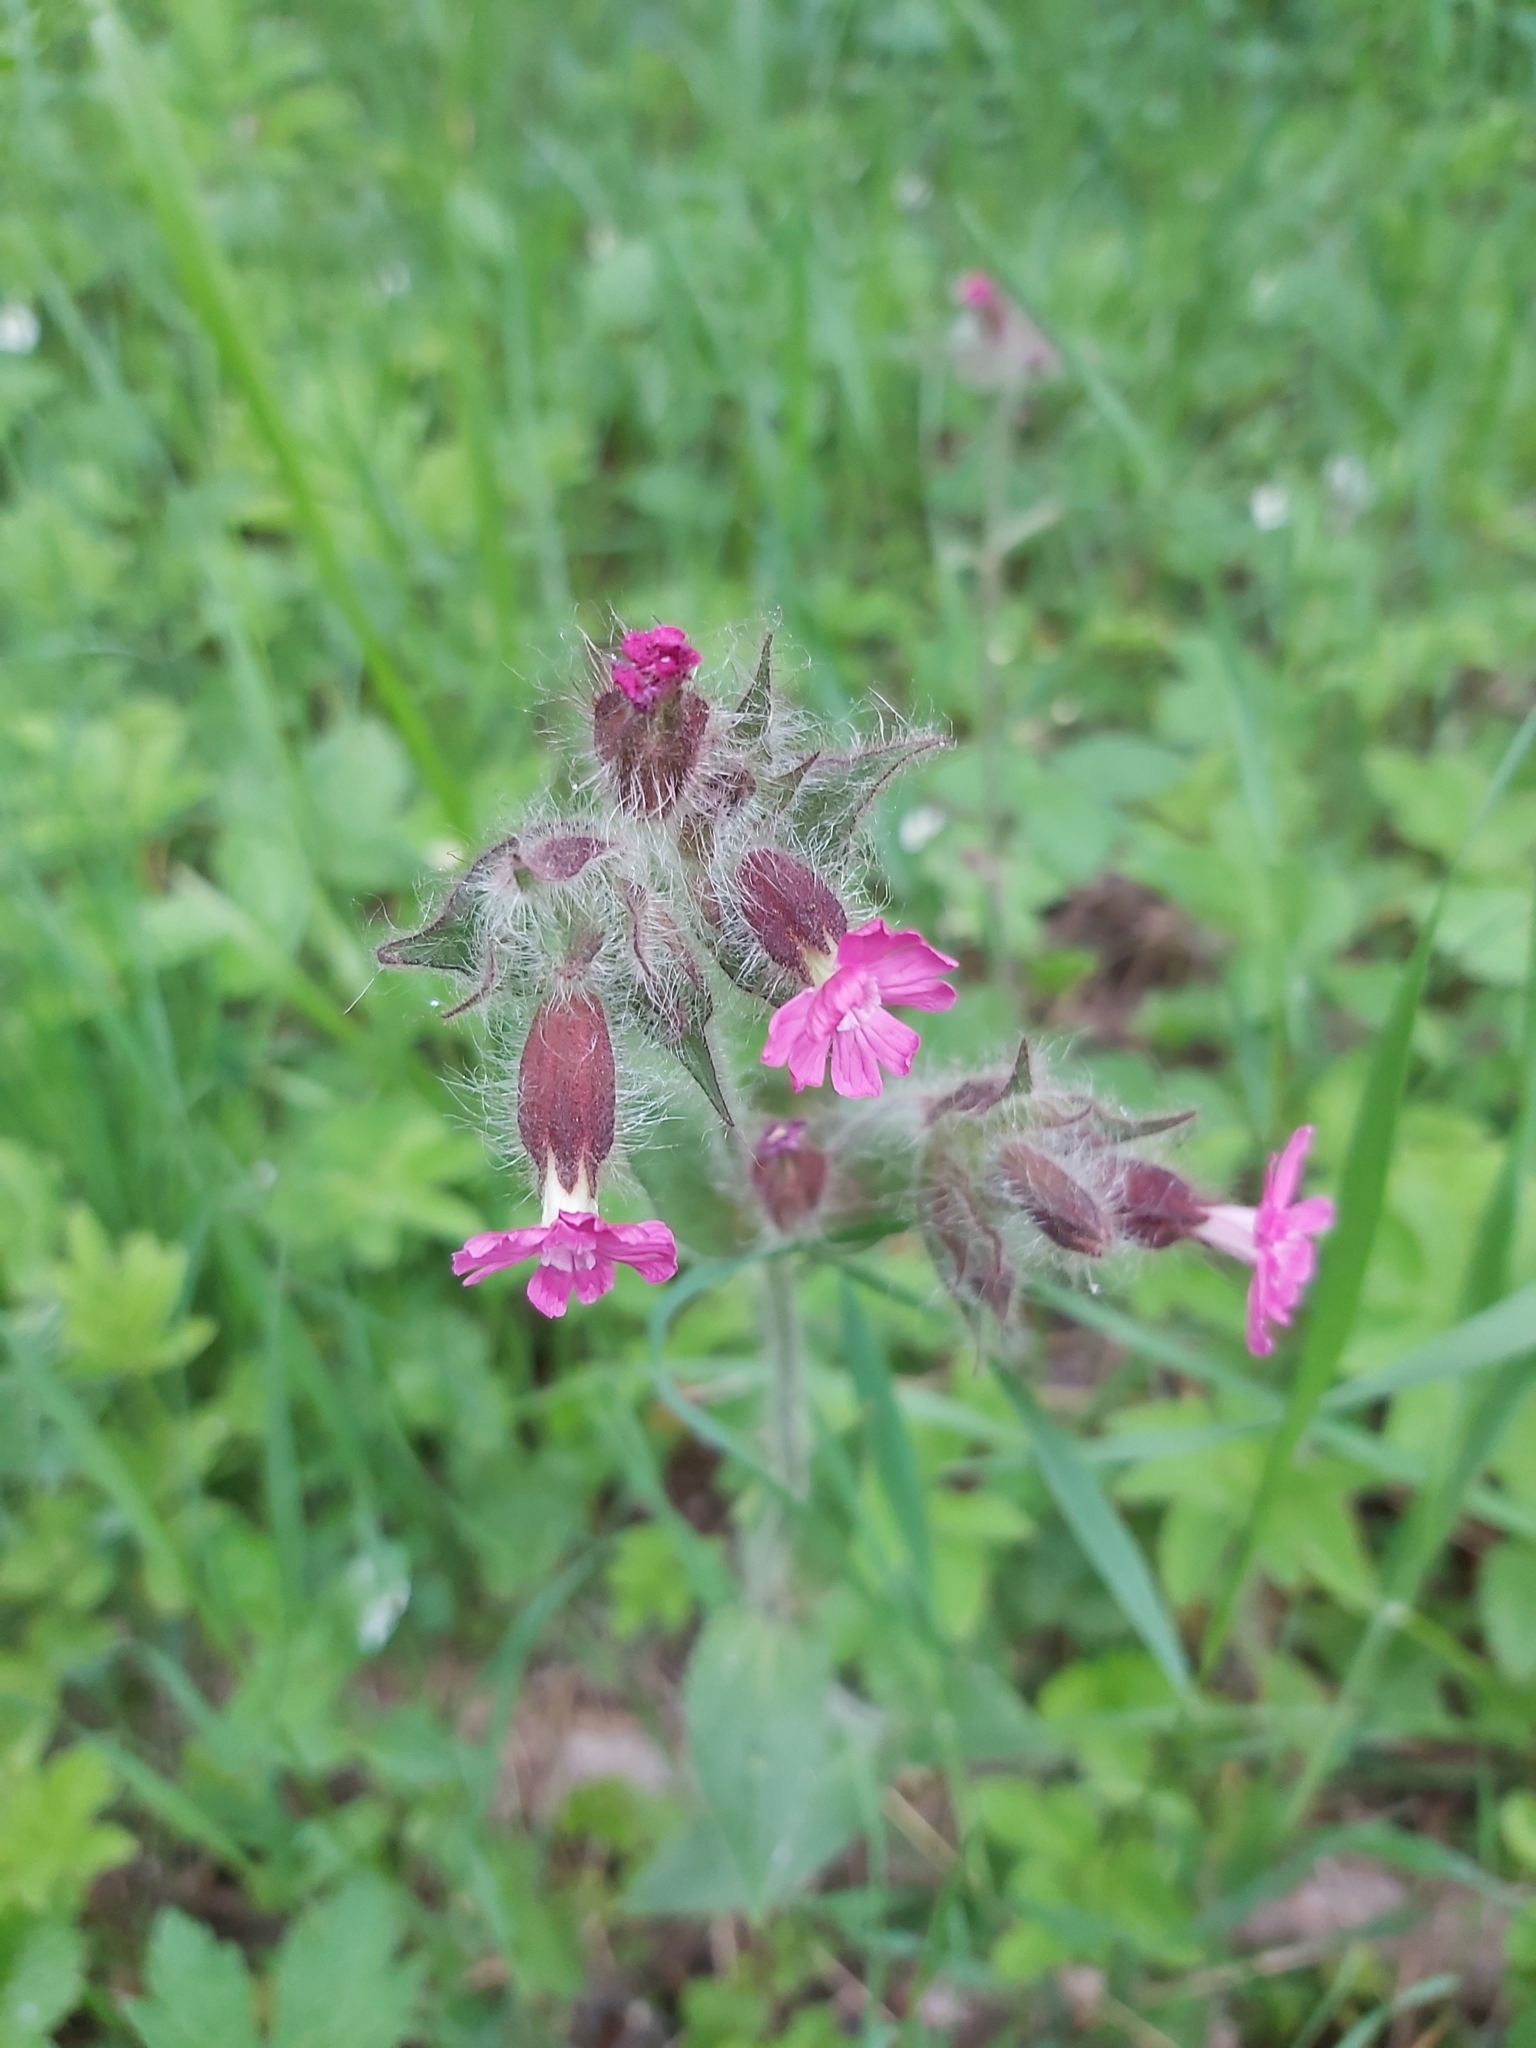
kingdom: Plantae
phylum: Tracheophyta
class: Magnoliopsida
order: Caryophyllales
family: Caryophyllaceae
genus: Silene
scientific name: Silene dioica
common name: Red campion
